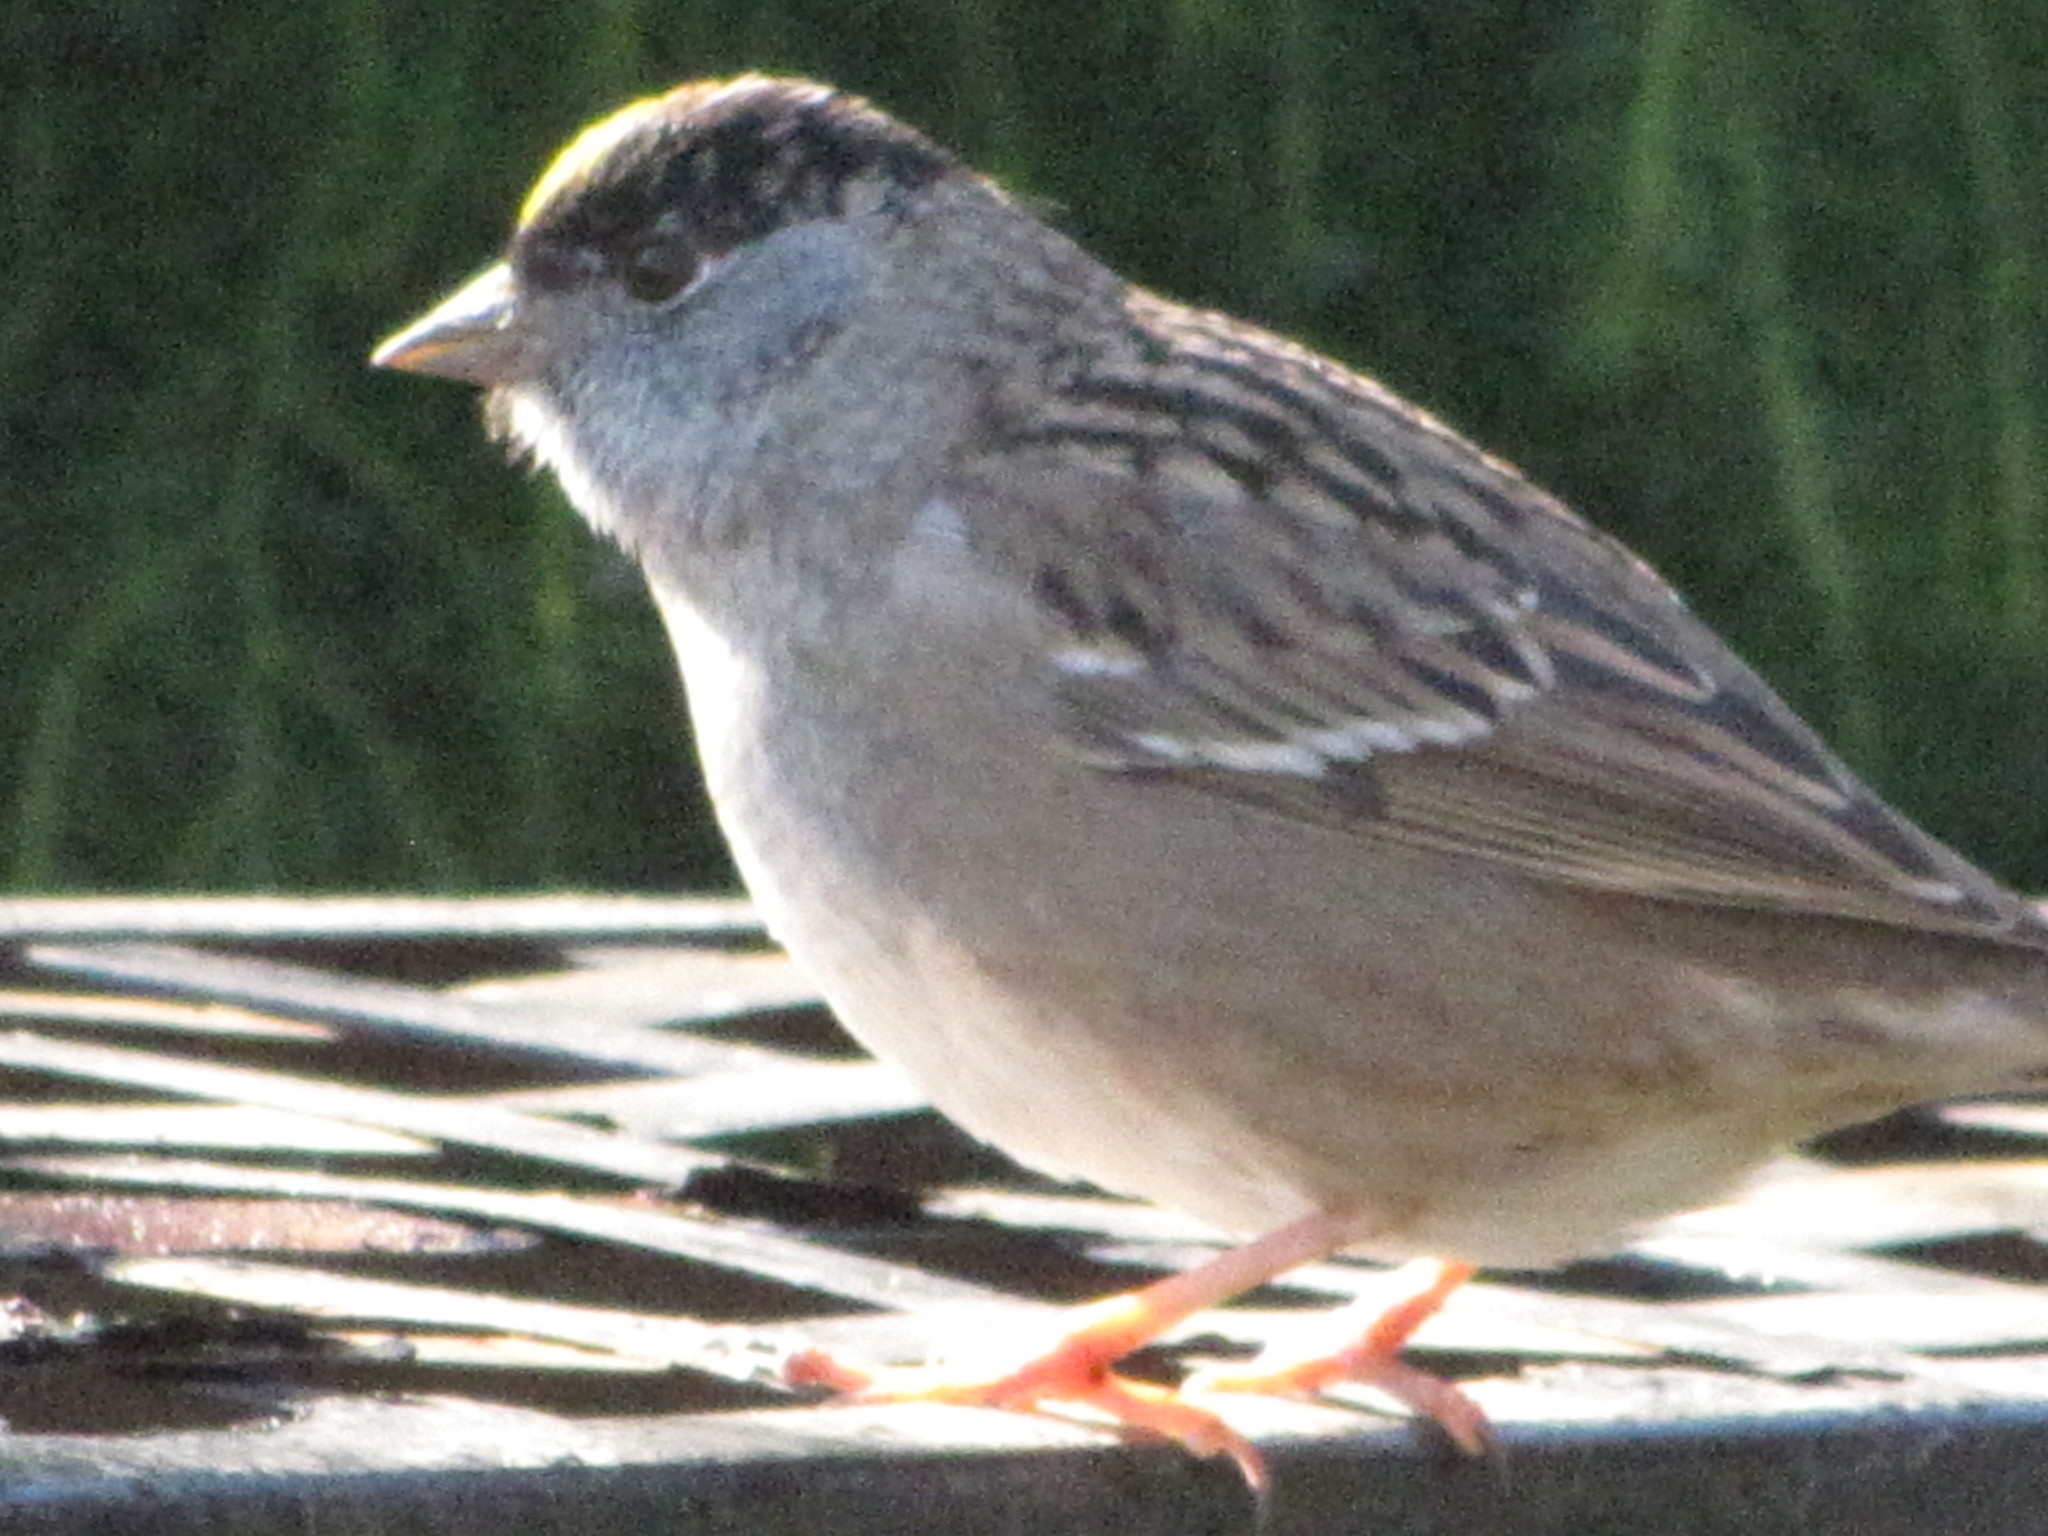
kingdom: Animalia
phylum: Chordata
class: Aves
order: Passeriformes
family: Passerellidae
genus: Zonotrichia
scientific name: Zonotrichia atricapilla
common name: Golden-crowned sparrow
